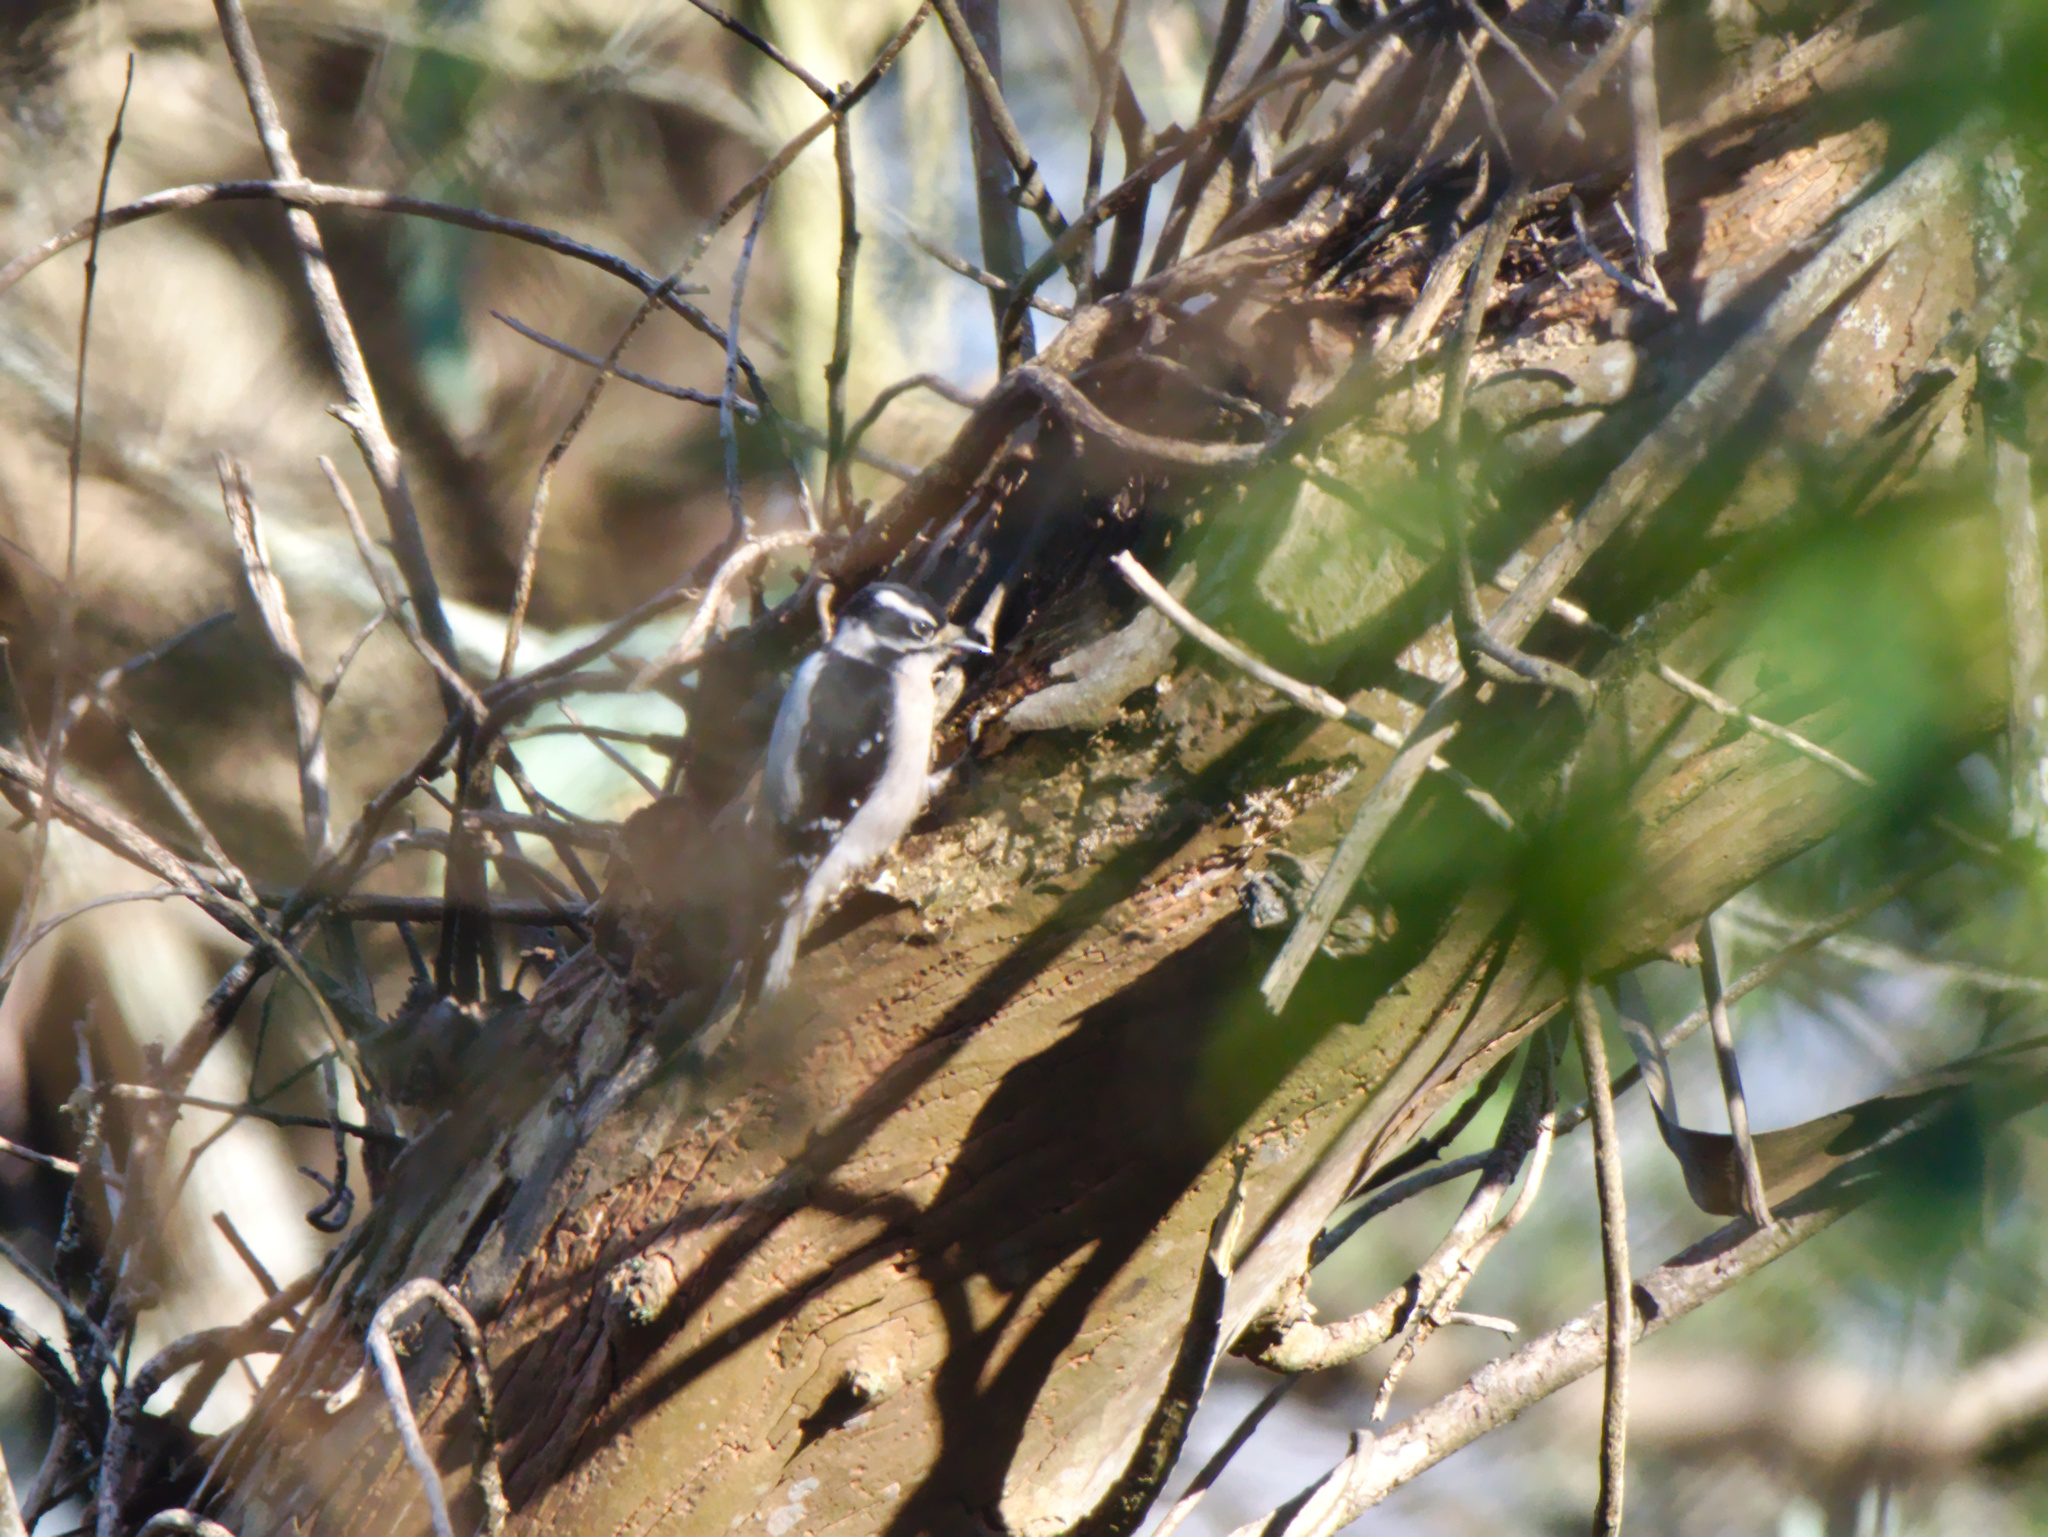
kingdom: Animalia
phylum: Chordata
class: Aves
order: Piciformes
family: Picidae
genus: Dryobates
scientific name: Dryobates pubescens
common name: Downy woodpecker
